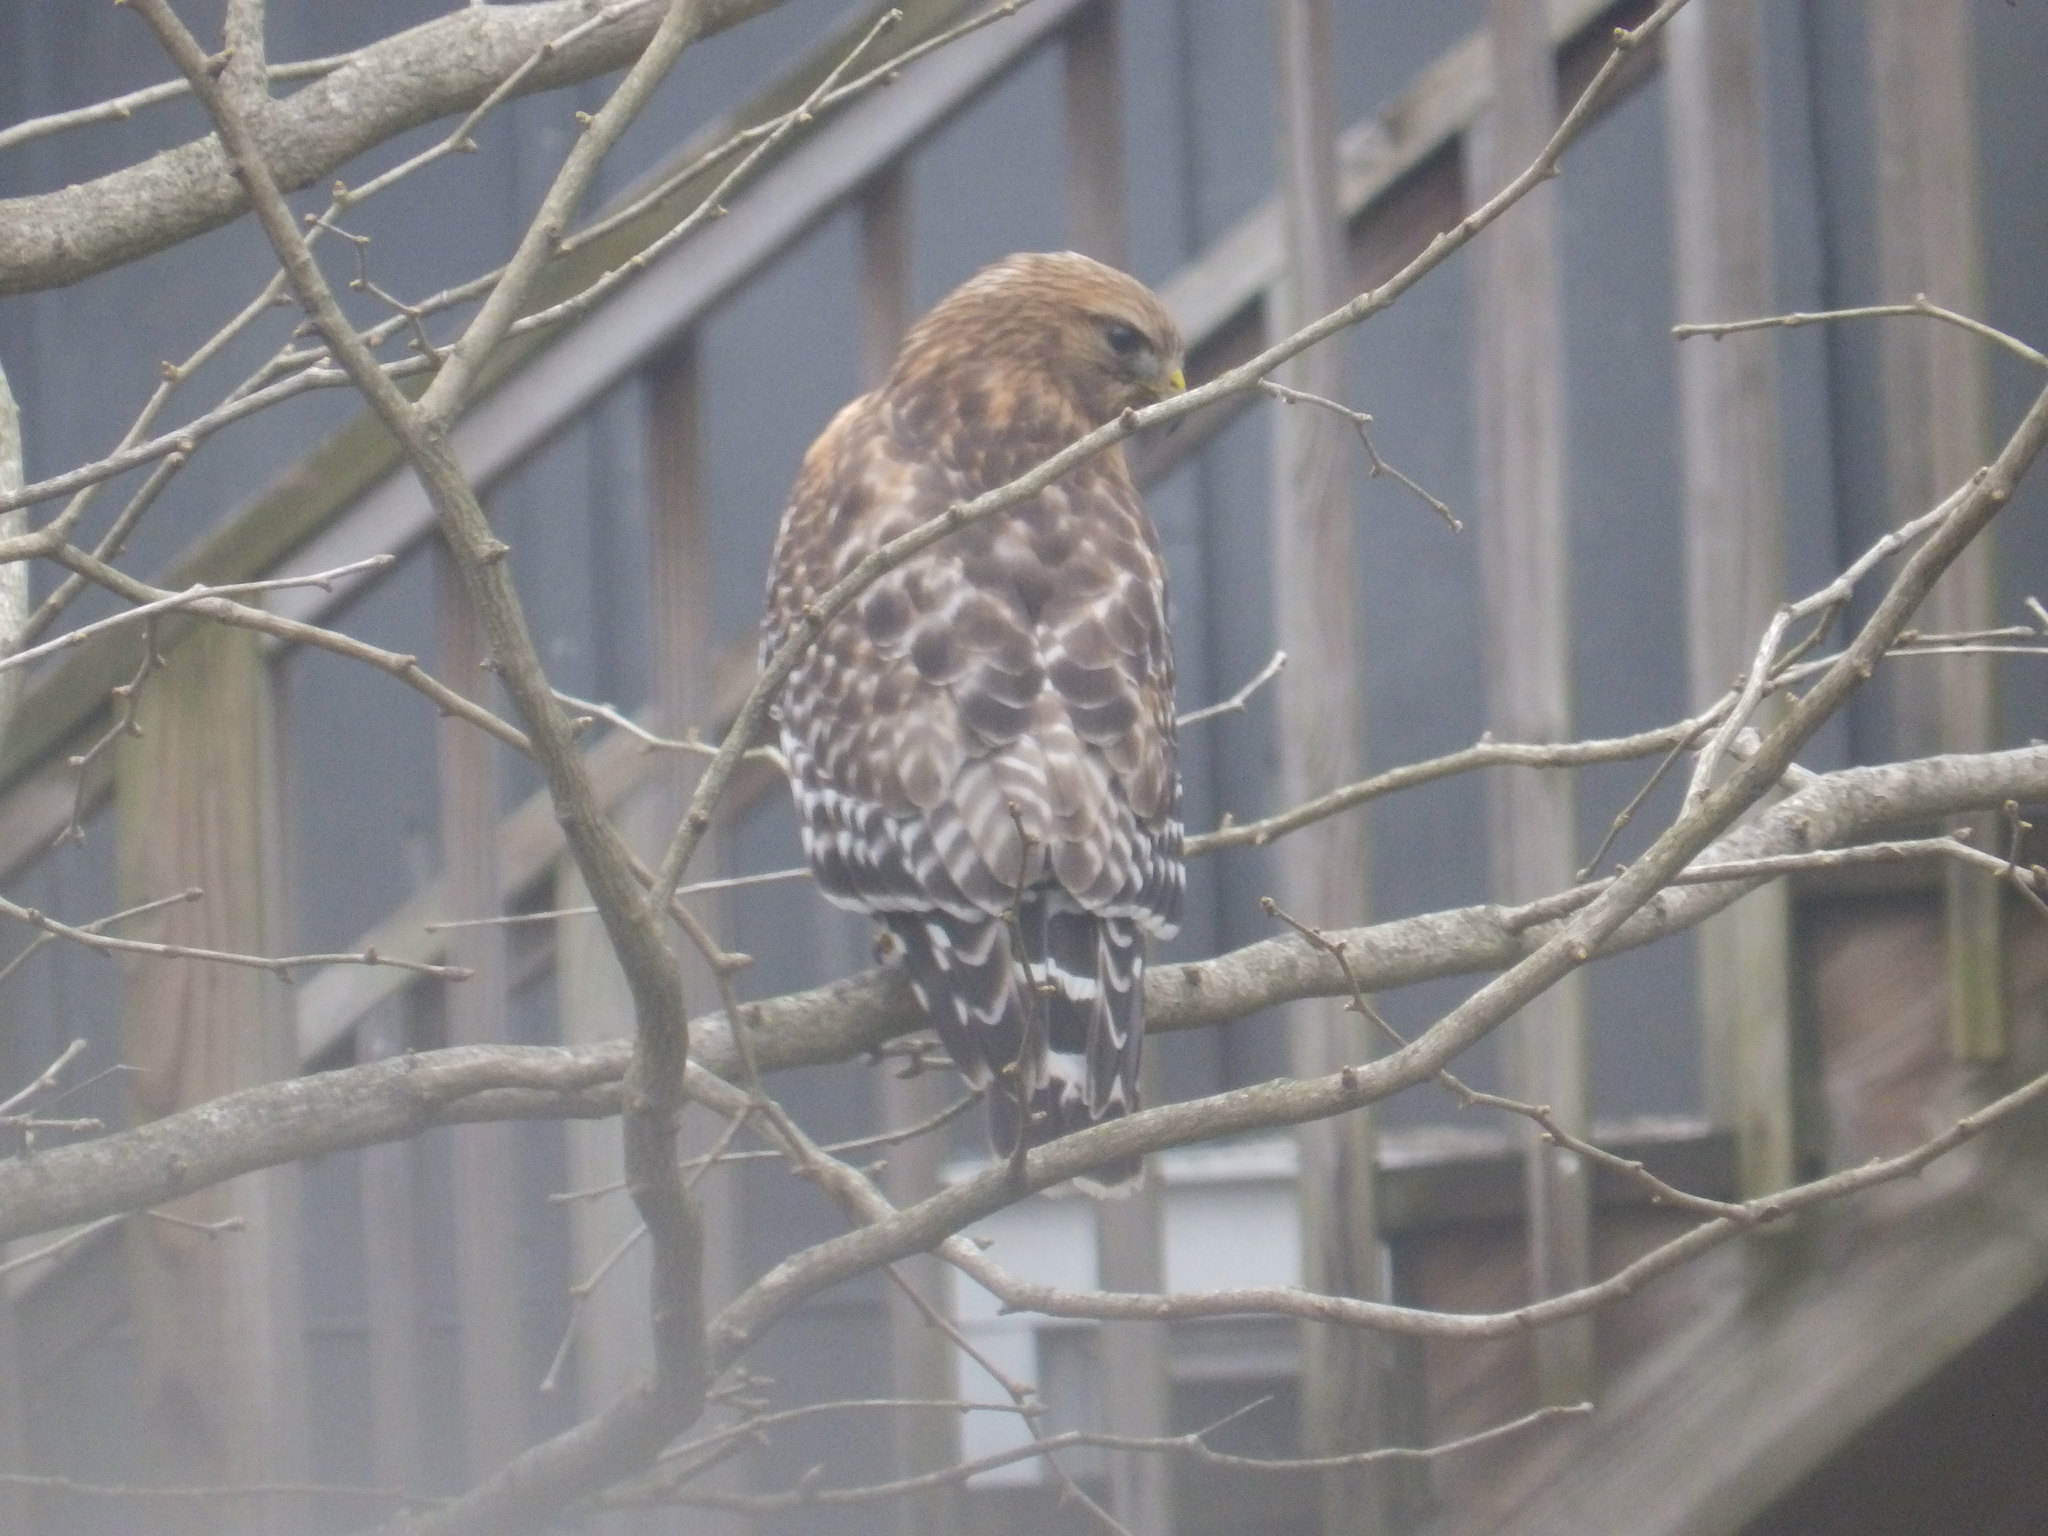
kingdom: Animalia
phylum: Chordata
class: Aves
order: Accipitriformes
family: Accipitridae
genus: Buteo
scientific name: Buteo lineatus
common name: Red-shouldered hawk
